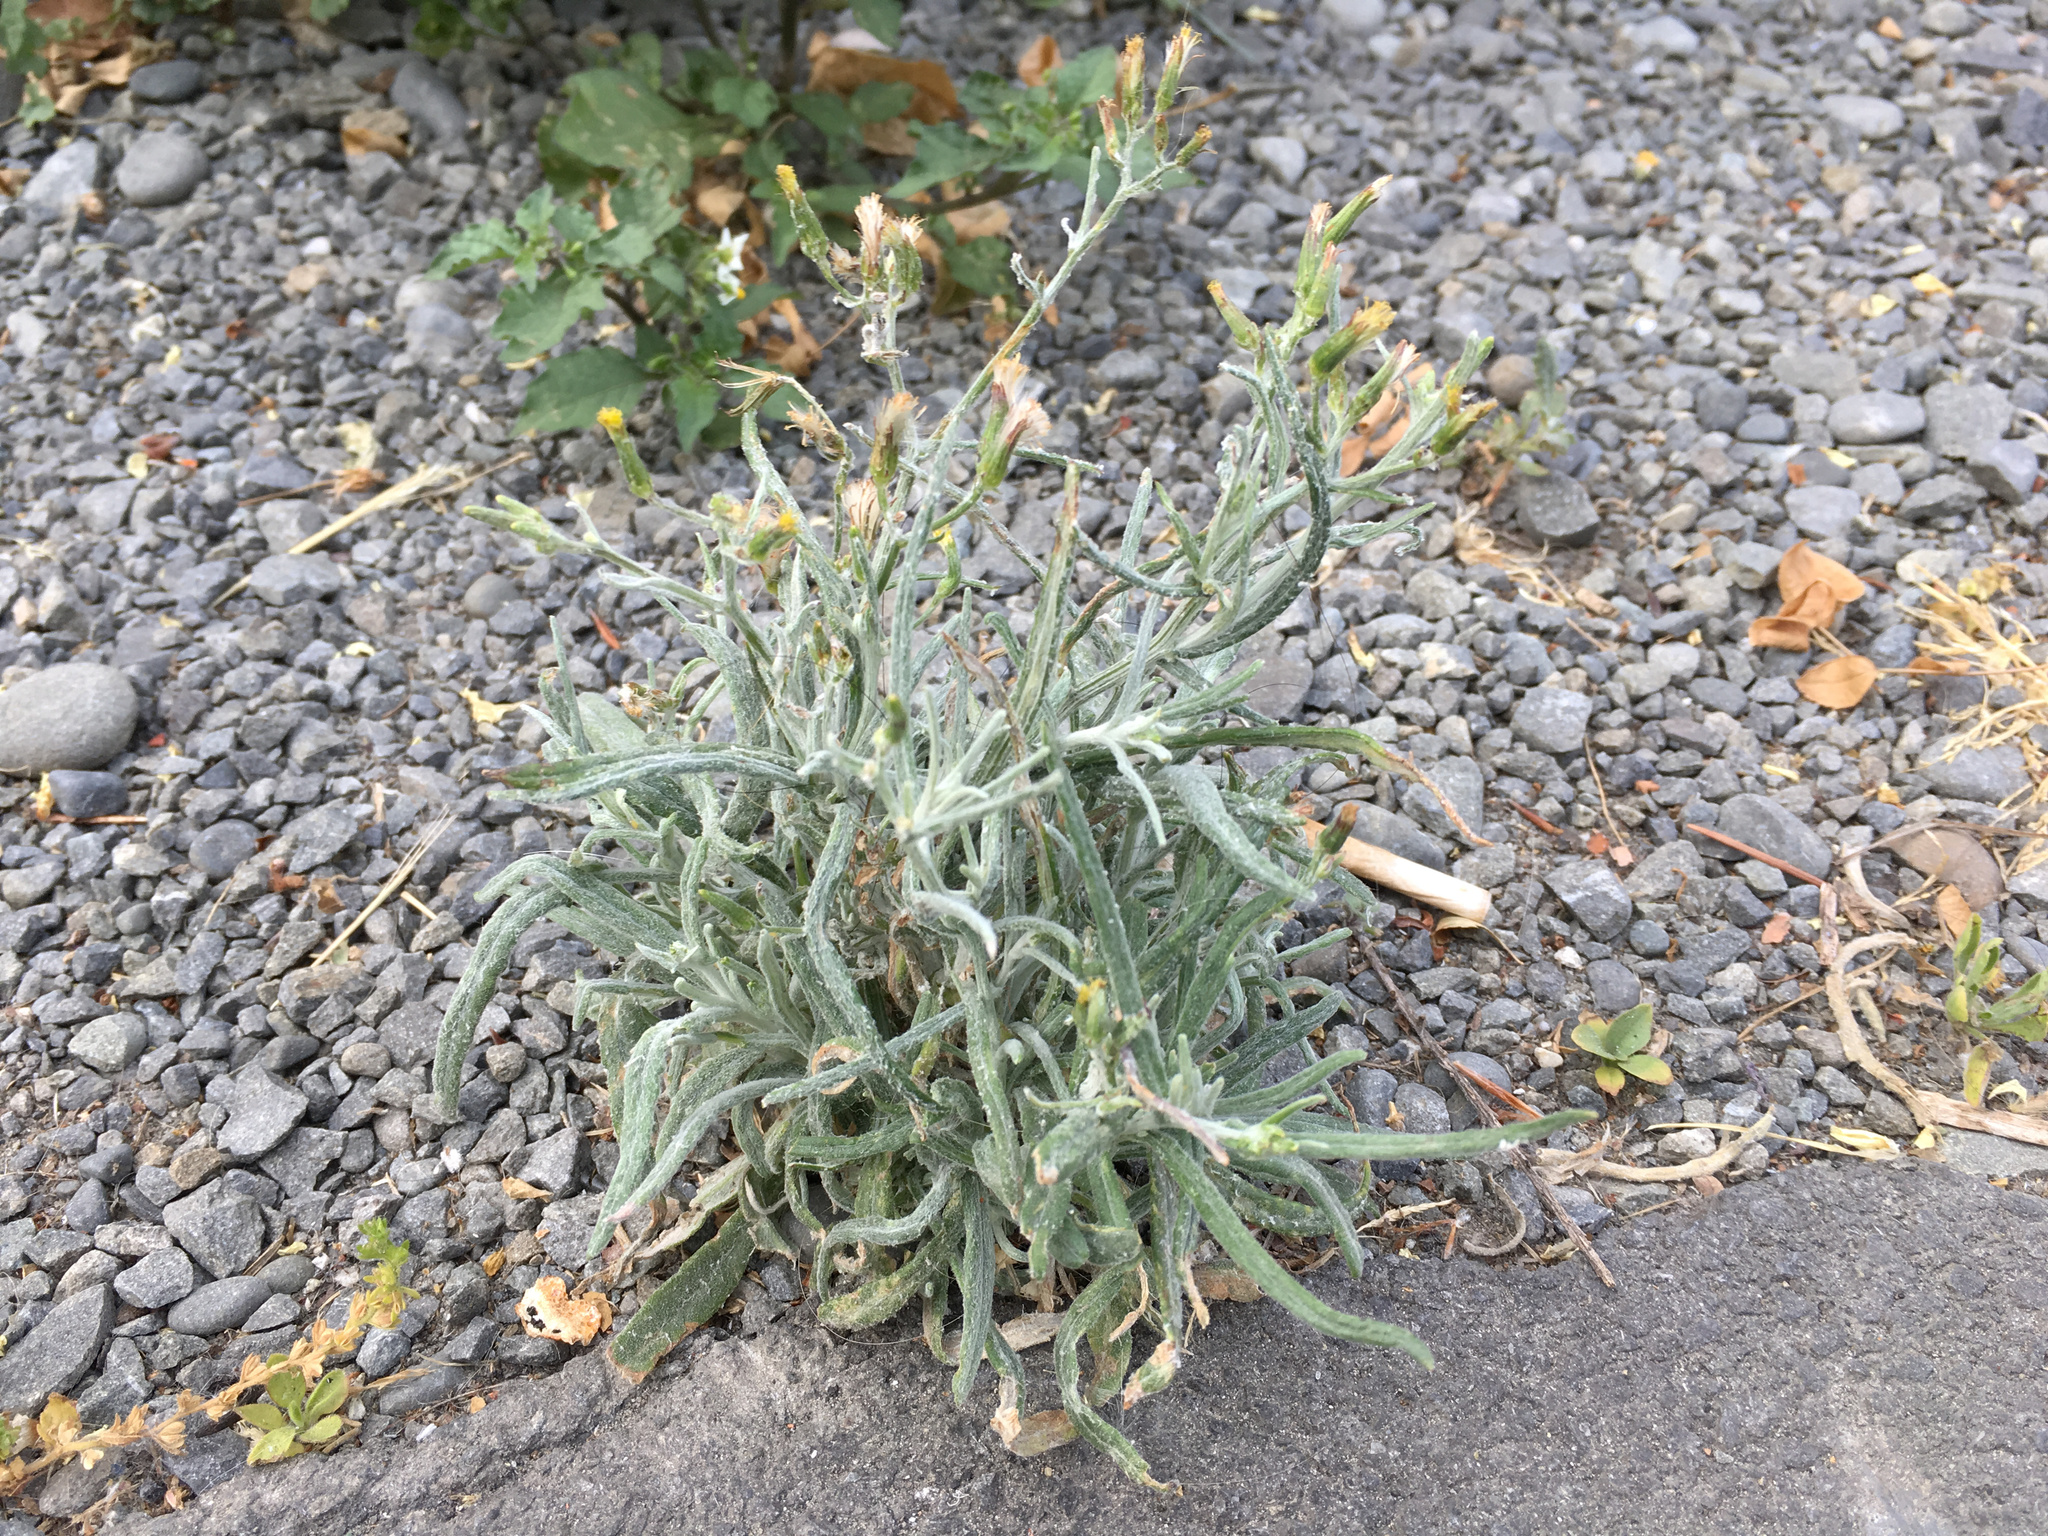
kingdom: Plantae
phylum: Tracheophyta
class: Magnoliopsida
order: Asterales
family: Asteraceae
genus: Senecio
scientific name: Senecio quadridentatus
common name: Cotton fireweed
